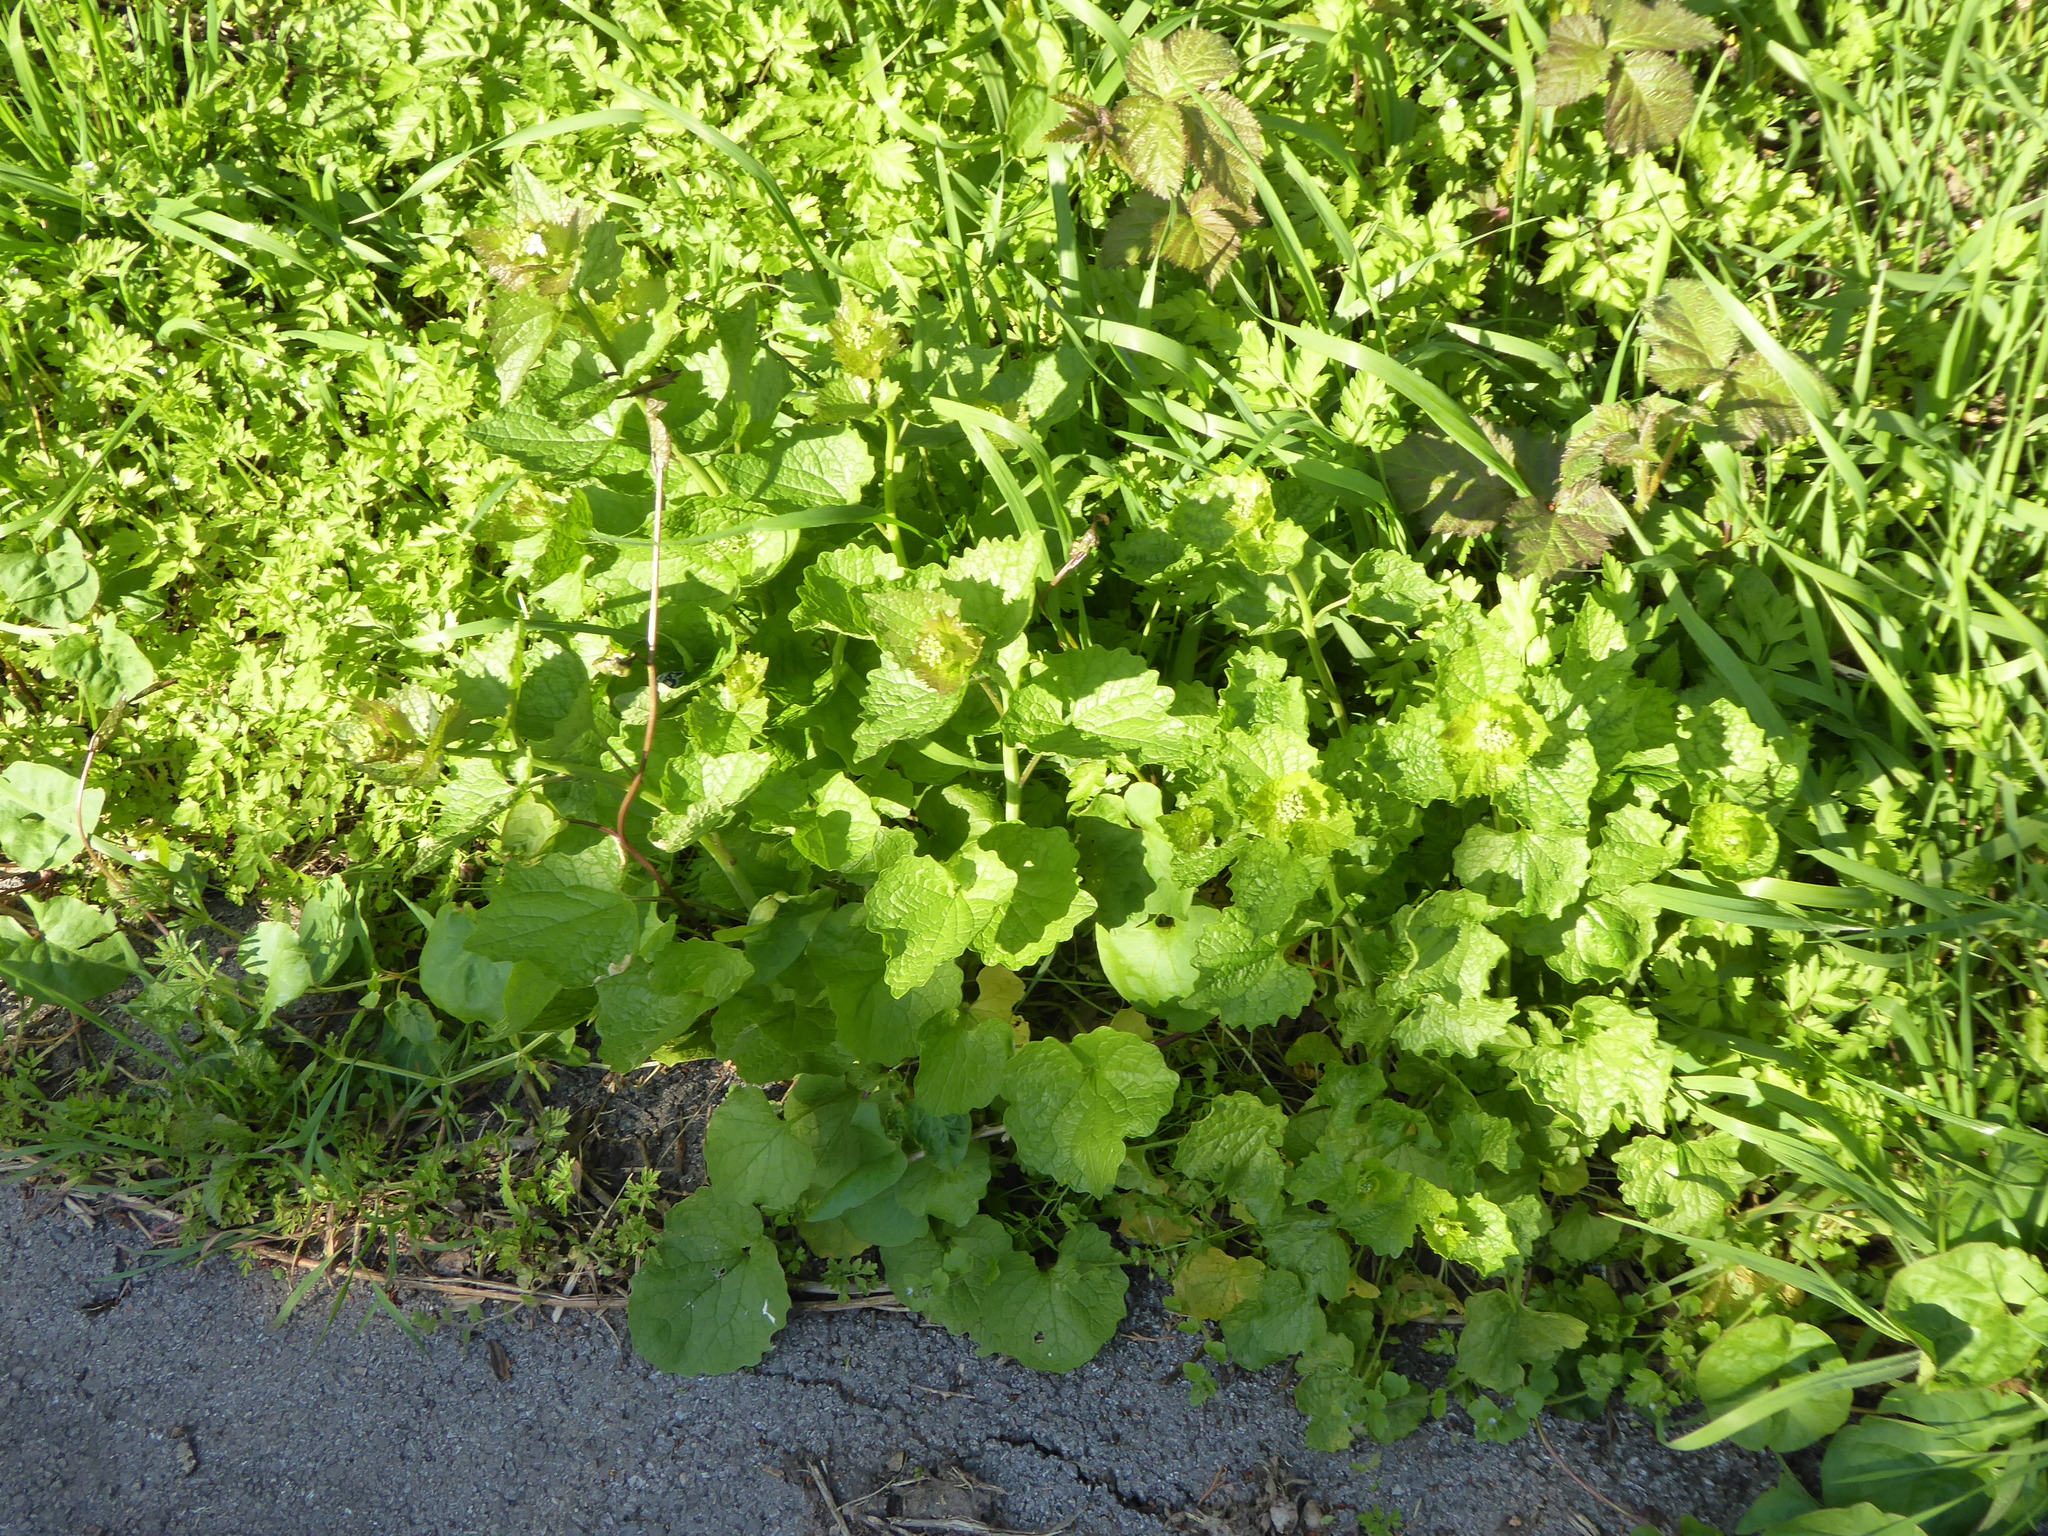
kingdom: Plantae
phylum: Tracheophyta
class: Magnoliopsida
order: Brassicales
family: Brassicaceae
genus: Alliaria
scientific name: Alliaria petiolata
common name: Garlic mustard
